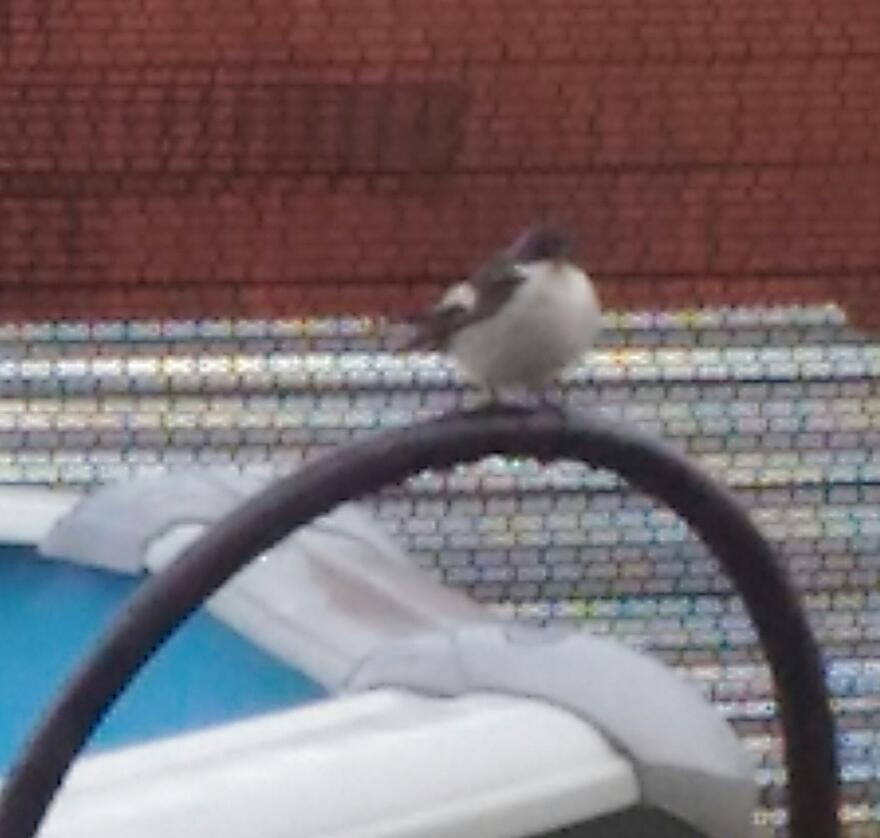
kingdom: Animalia
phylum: Chordata
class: Aves
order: Passeriformes
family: Muscicapidae
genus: Ficedula
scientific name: Ficedula hypoleuca
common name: European pied flycatcher
